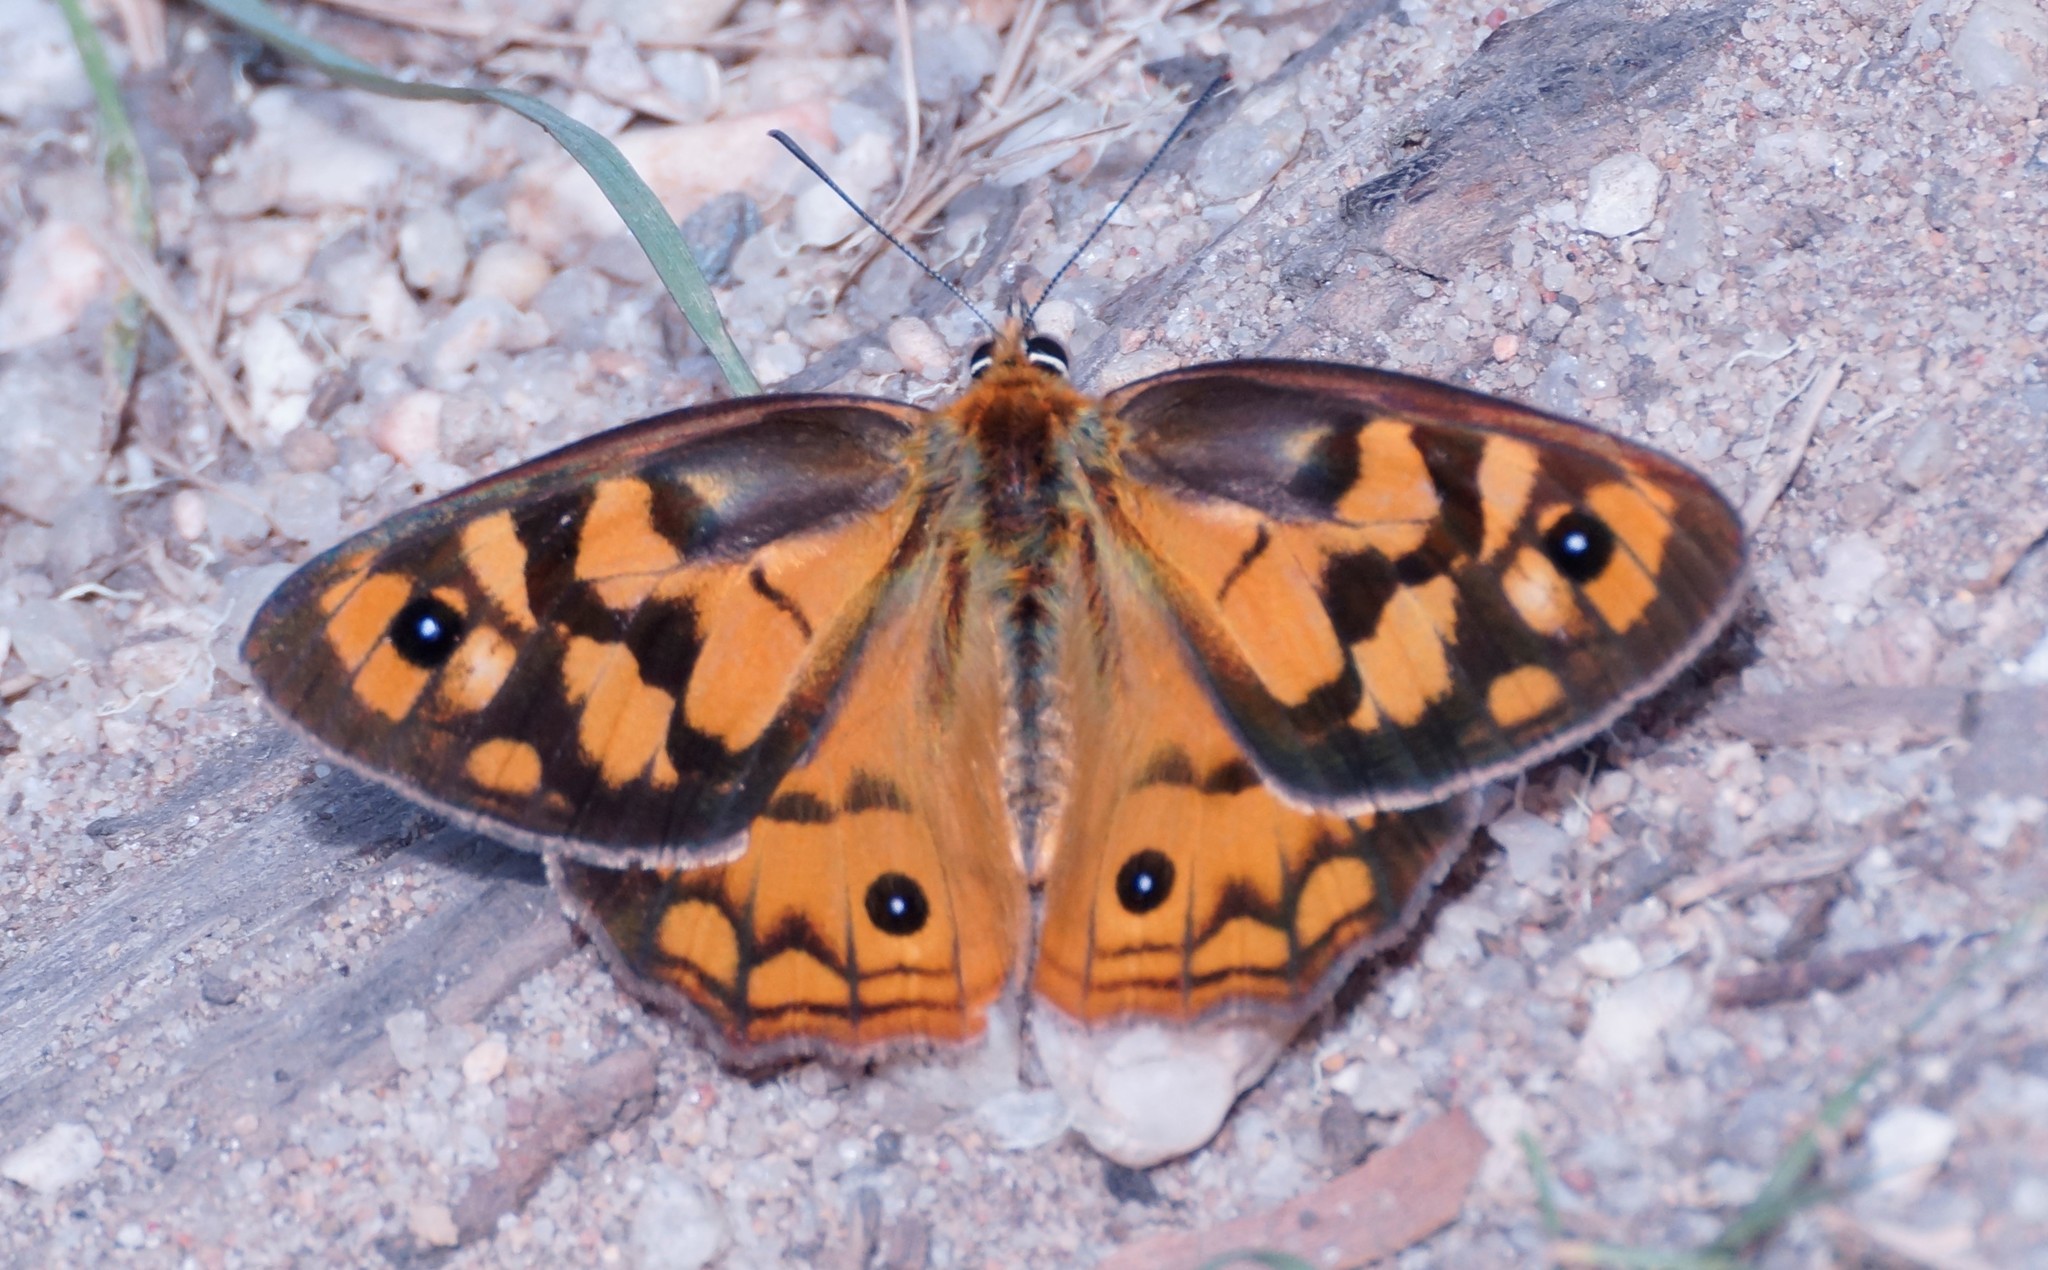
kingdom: Animalia
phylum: Arthropoda
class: Insecta
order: Lepidoptera
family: Nymphalidae
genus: Heteronympha
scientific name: Heteronympha penelope
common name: Shouldered brown
